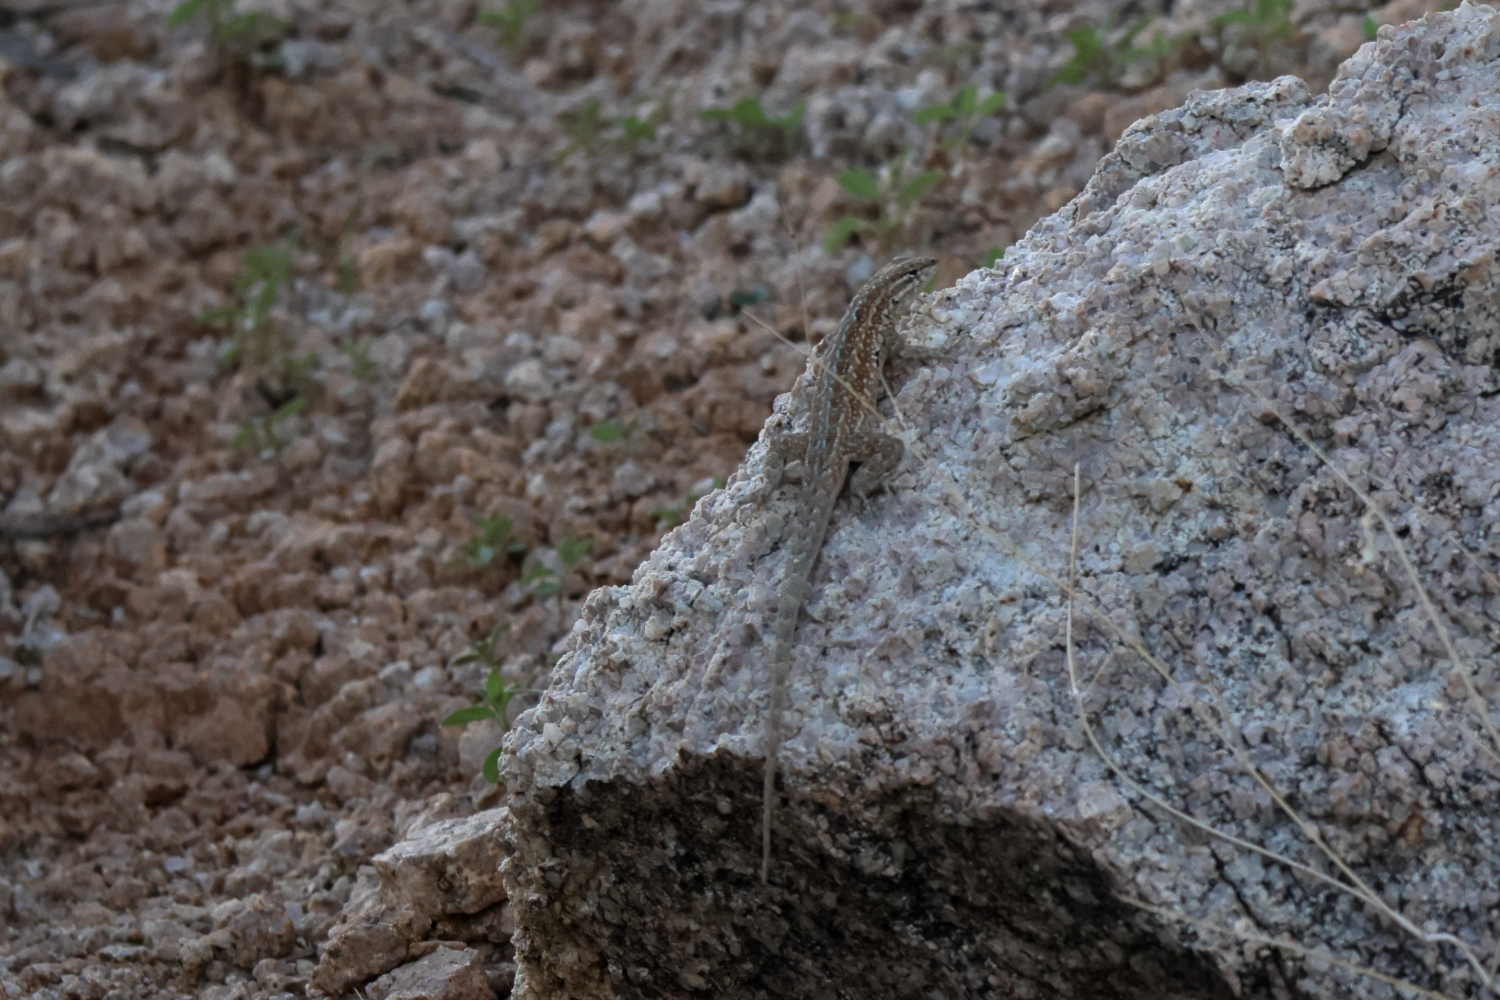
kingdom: Animalia
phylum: Chordata
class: Squamata
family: Phrynosomatidae
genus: Uta
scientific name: Uta stansburiana
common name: Side-blotched lizard
